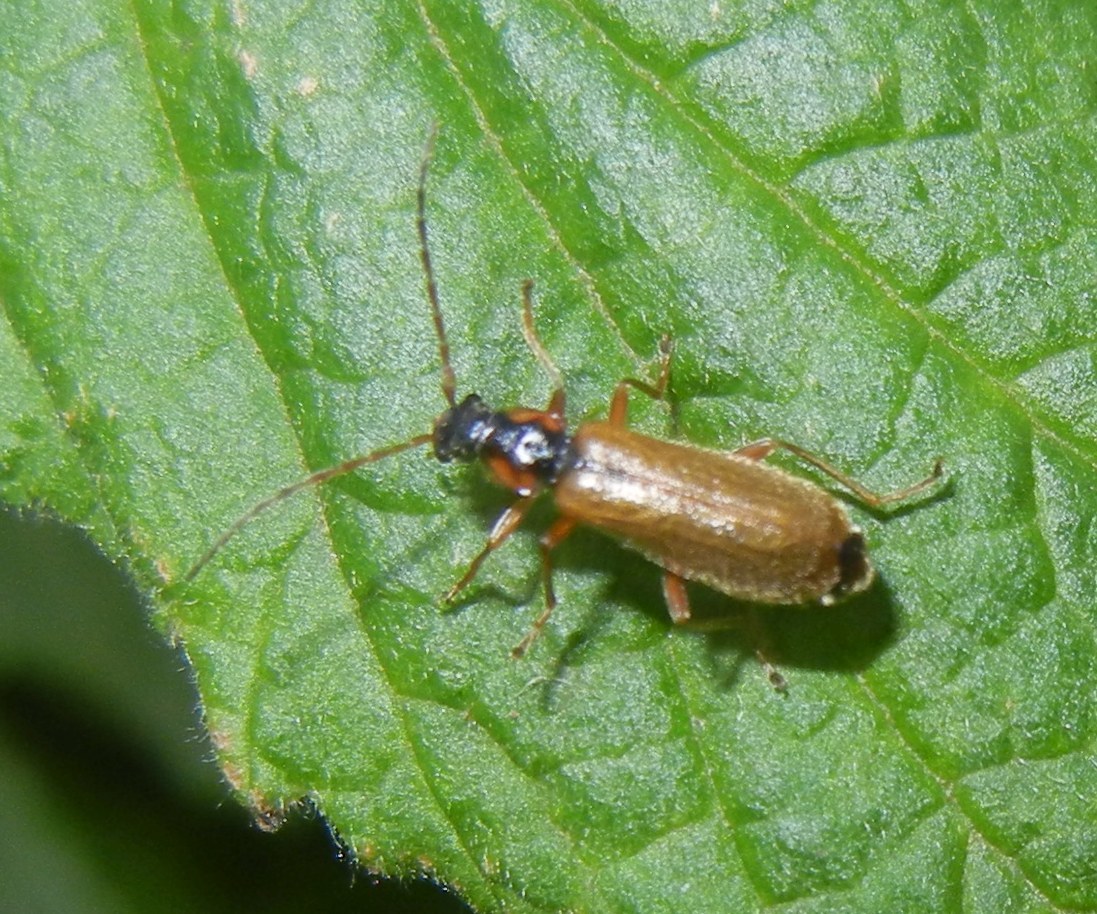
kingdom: Animalia
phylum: Arthropoda
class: Insecta
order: Coleoptera
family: Cantharidae
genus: Rhagonycha
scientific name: Rhagonycha testacea
